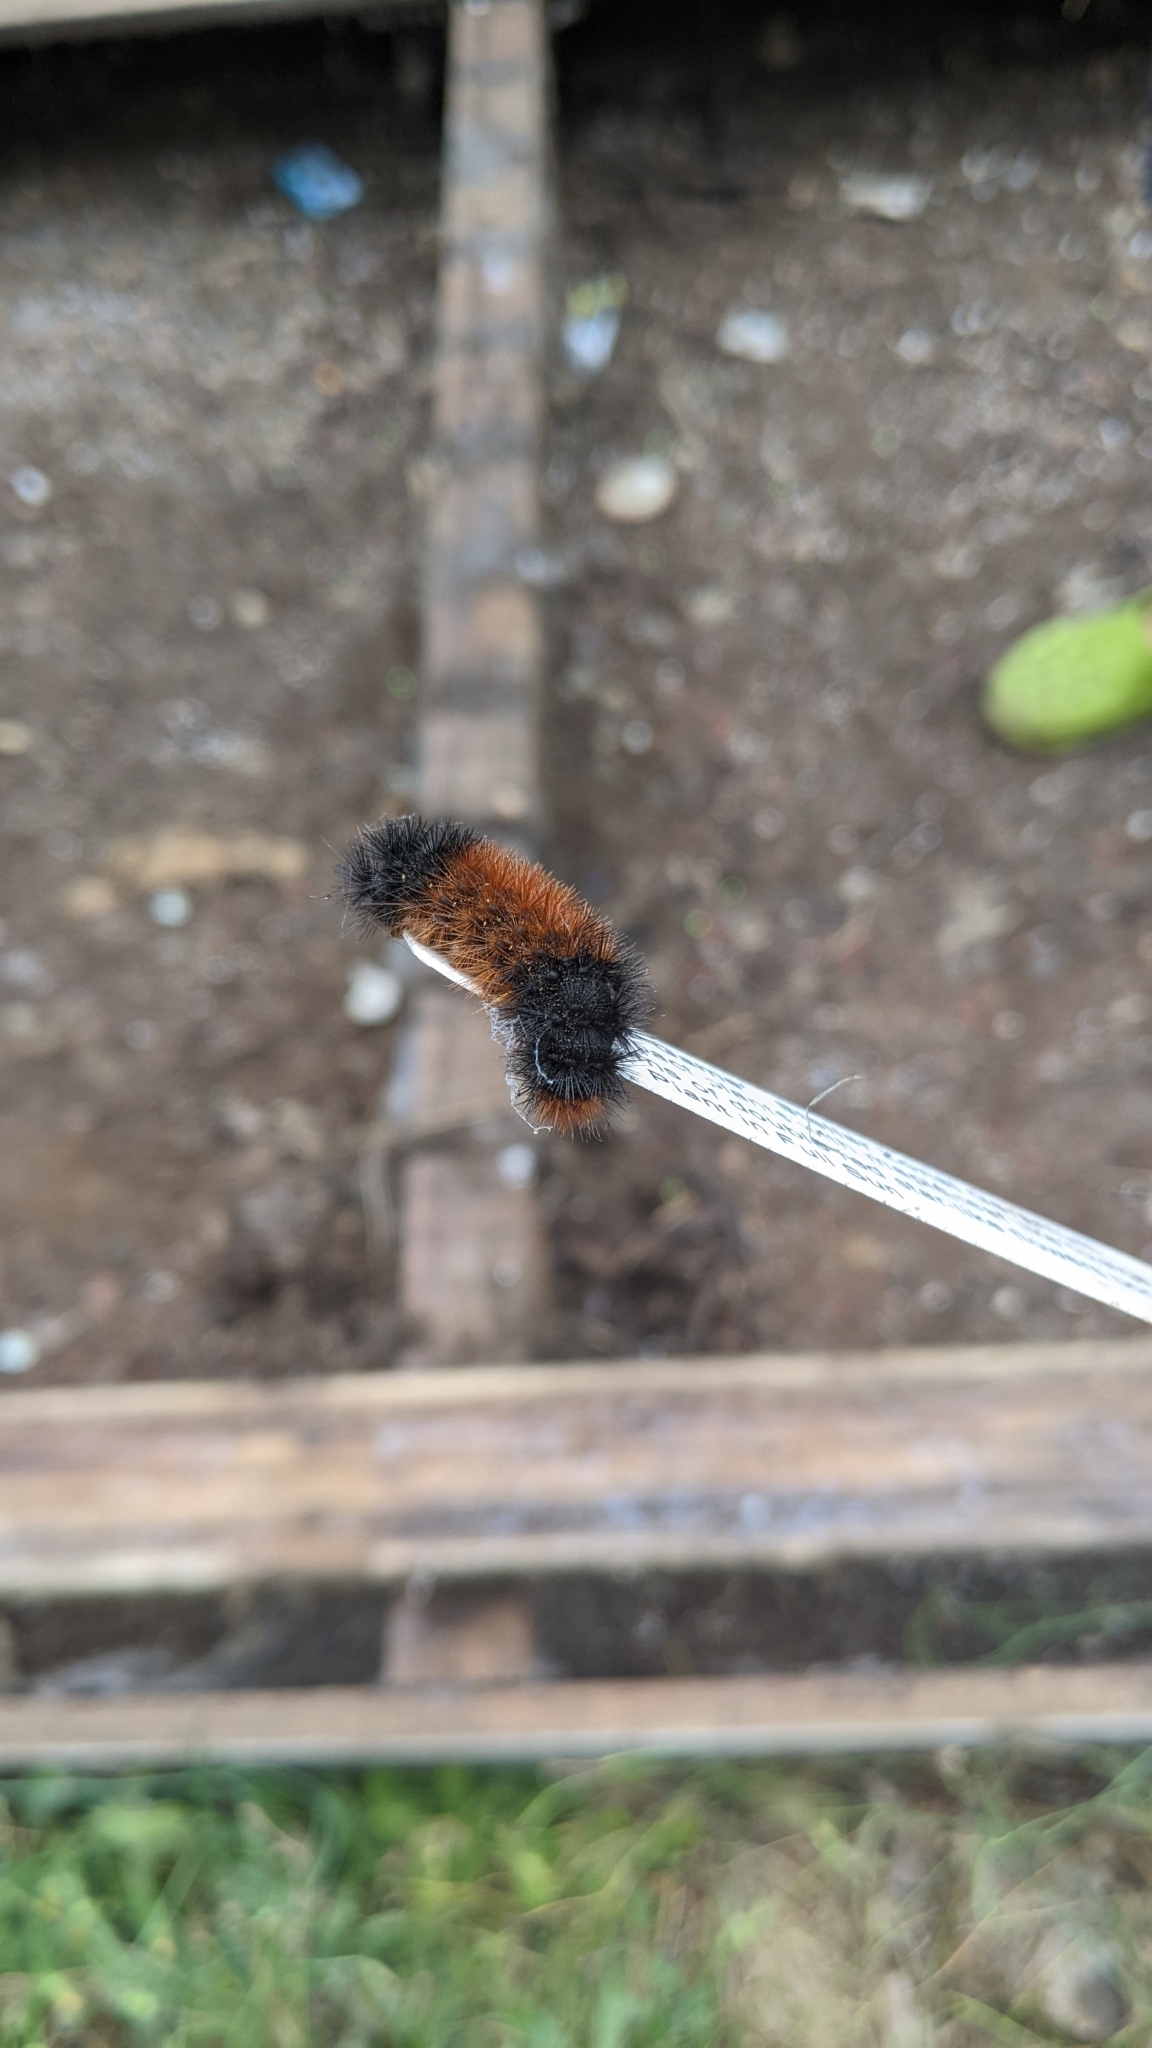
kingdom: Animalia
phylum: Arthropoda
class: Insecta
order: Lepidoptera
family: Erebidae
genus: Pyrrharctia
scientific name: Pyrrharctia isabella
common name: Isabella tiger moth
